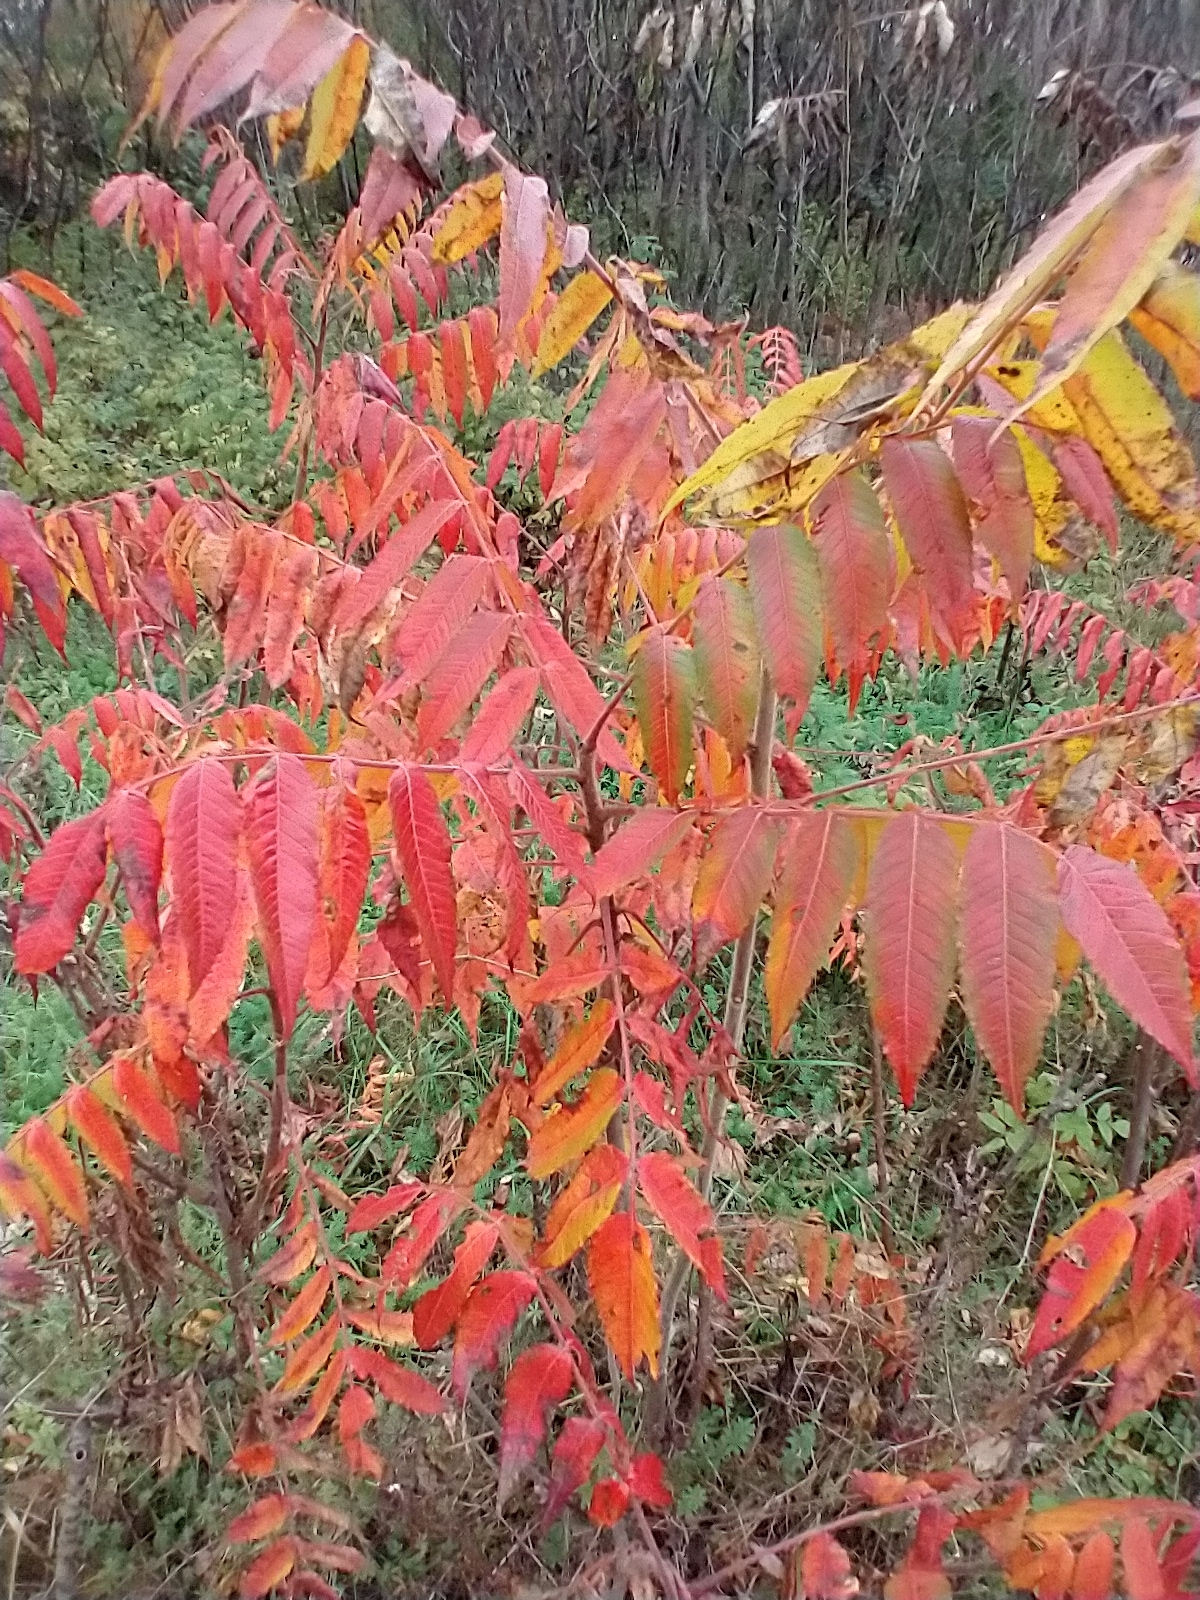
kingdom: Plantae
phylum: Tracheophyta
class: Magnoliopsida
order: Sapindales
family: Anacardiaceae
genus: Rhus
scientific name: Rhus typhina
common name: Staghorn sumac
